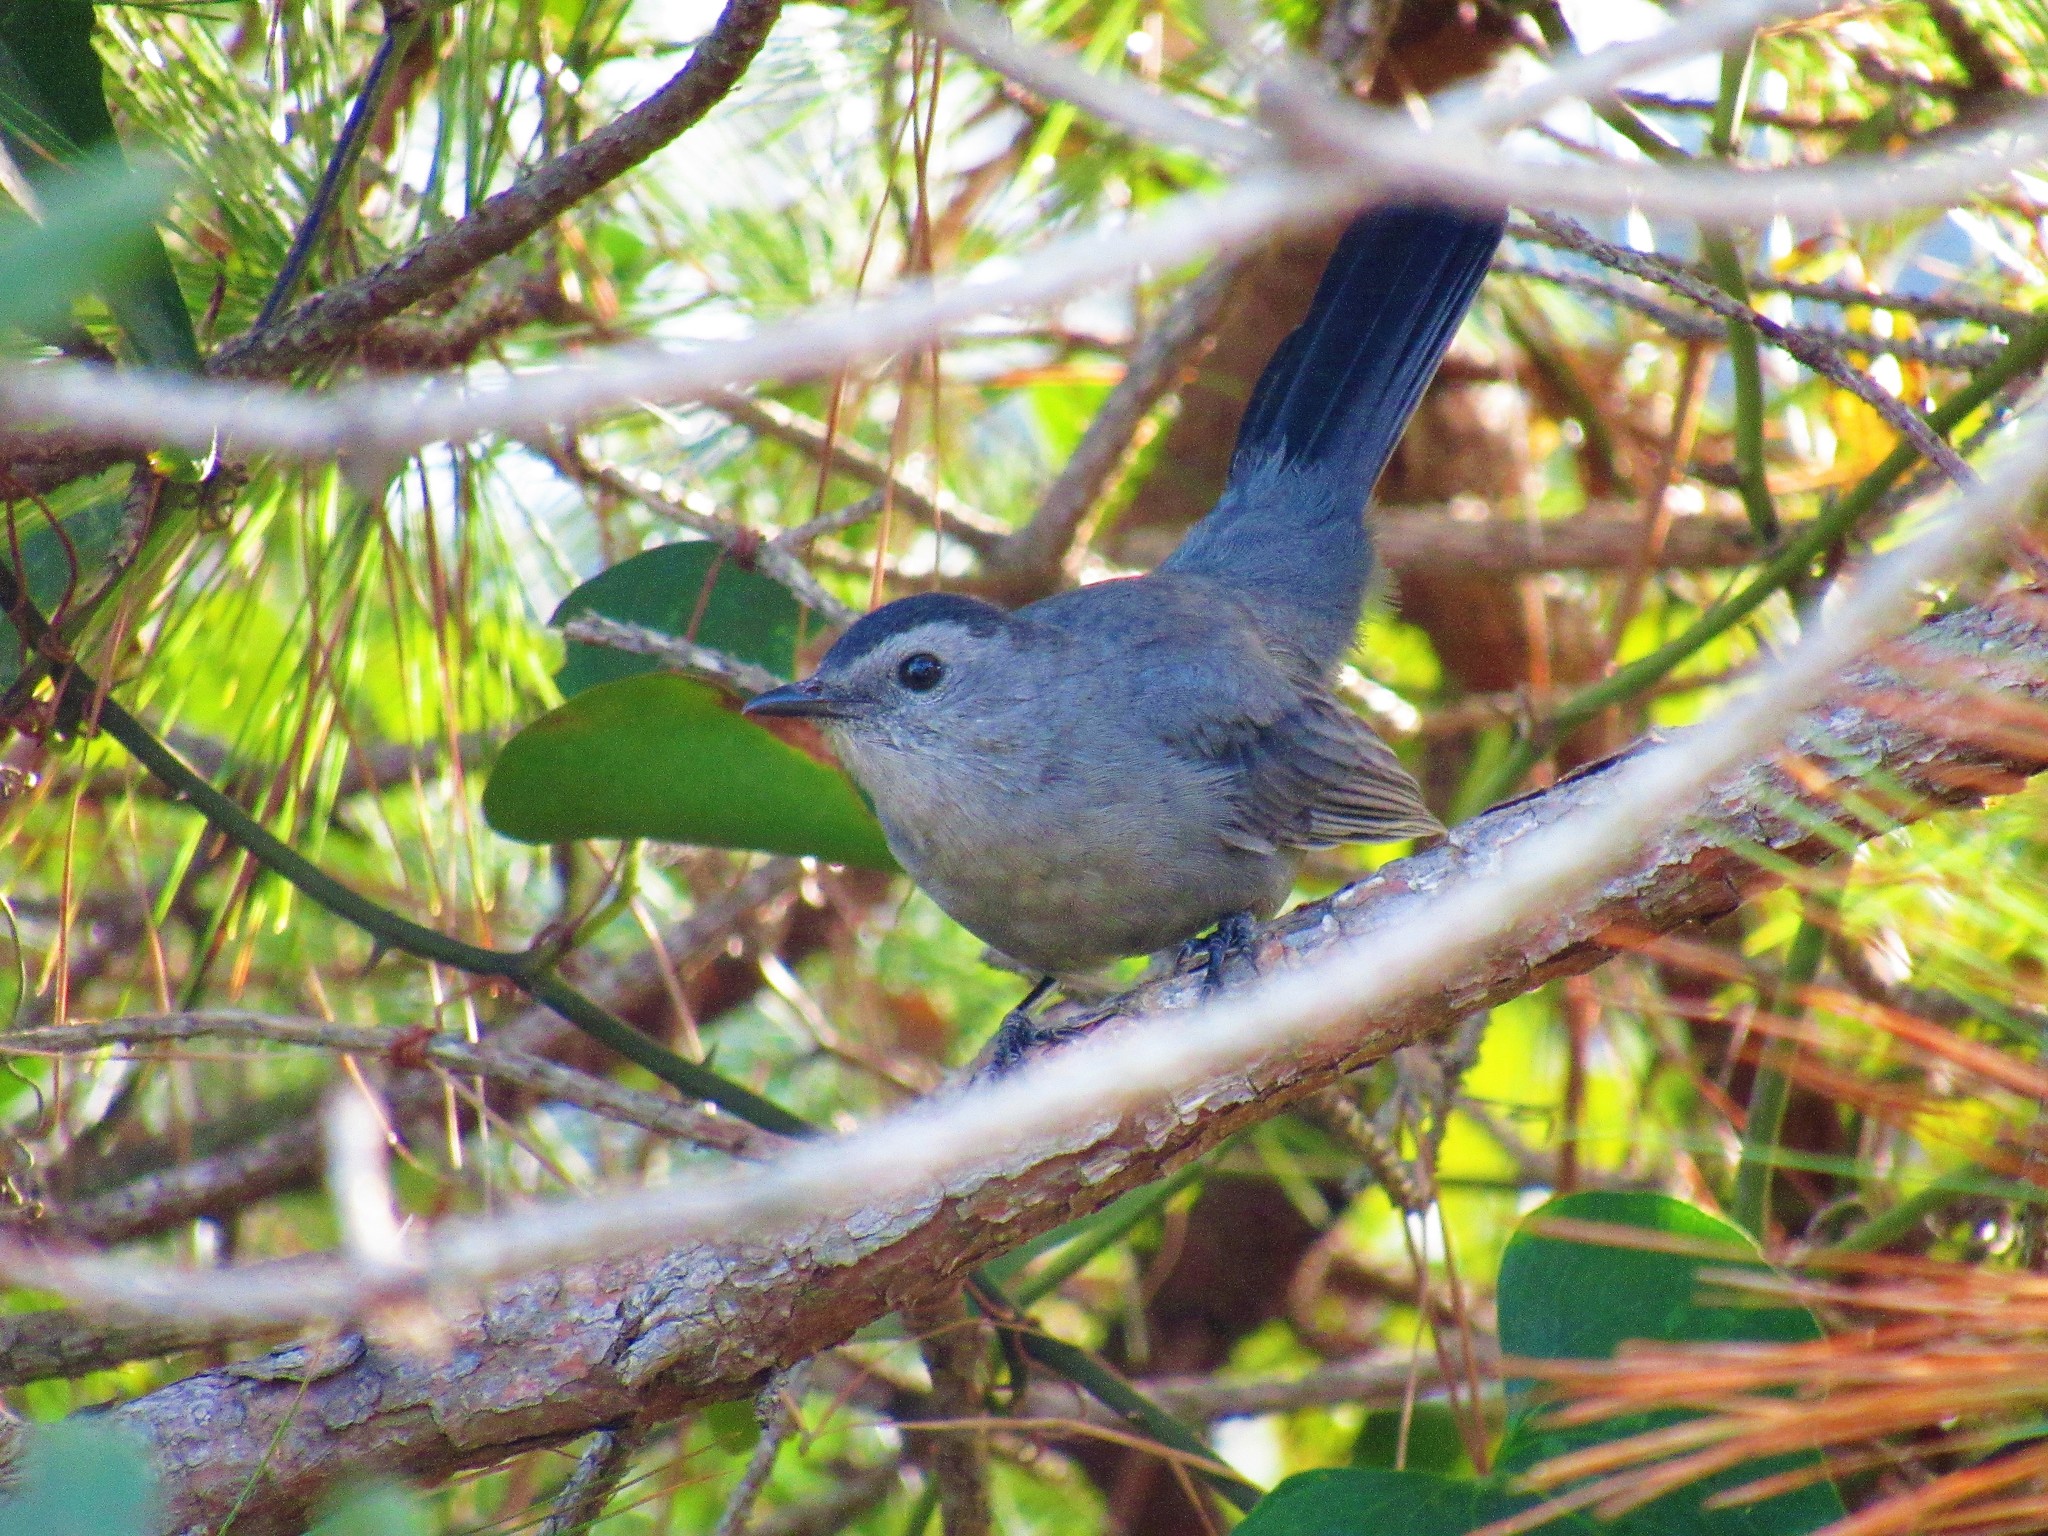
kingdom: Animalia
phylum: Chordata
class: Aves
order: Passeriformes
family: Mimidae
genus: Dumetella
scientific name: Dumetella carolinensis
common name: Gray catbird
